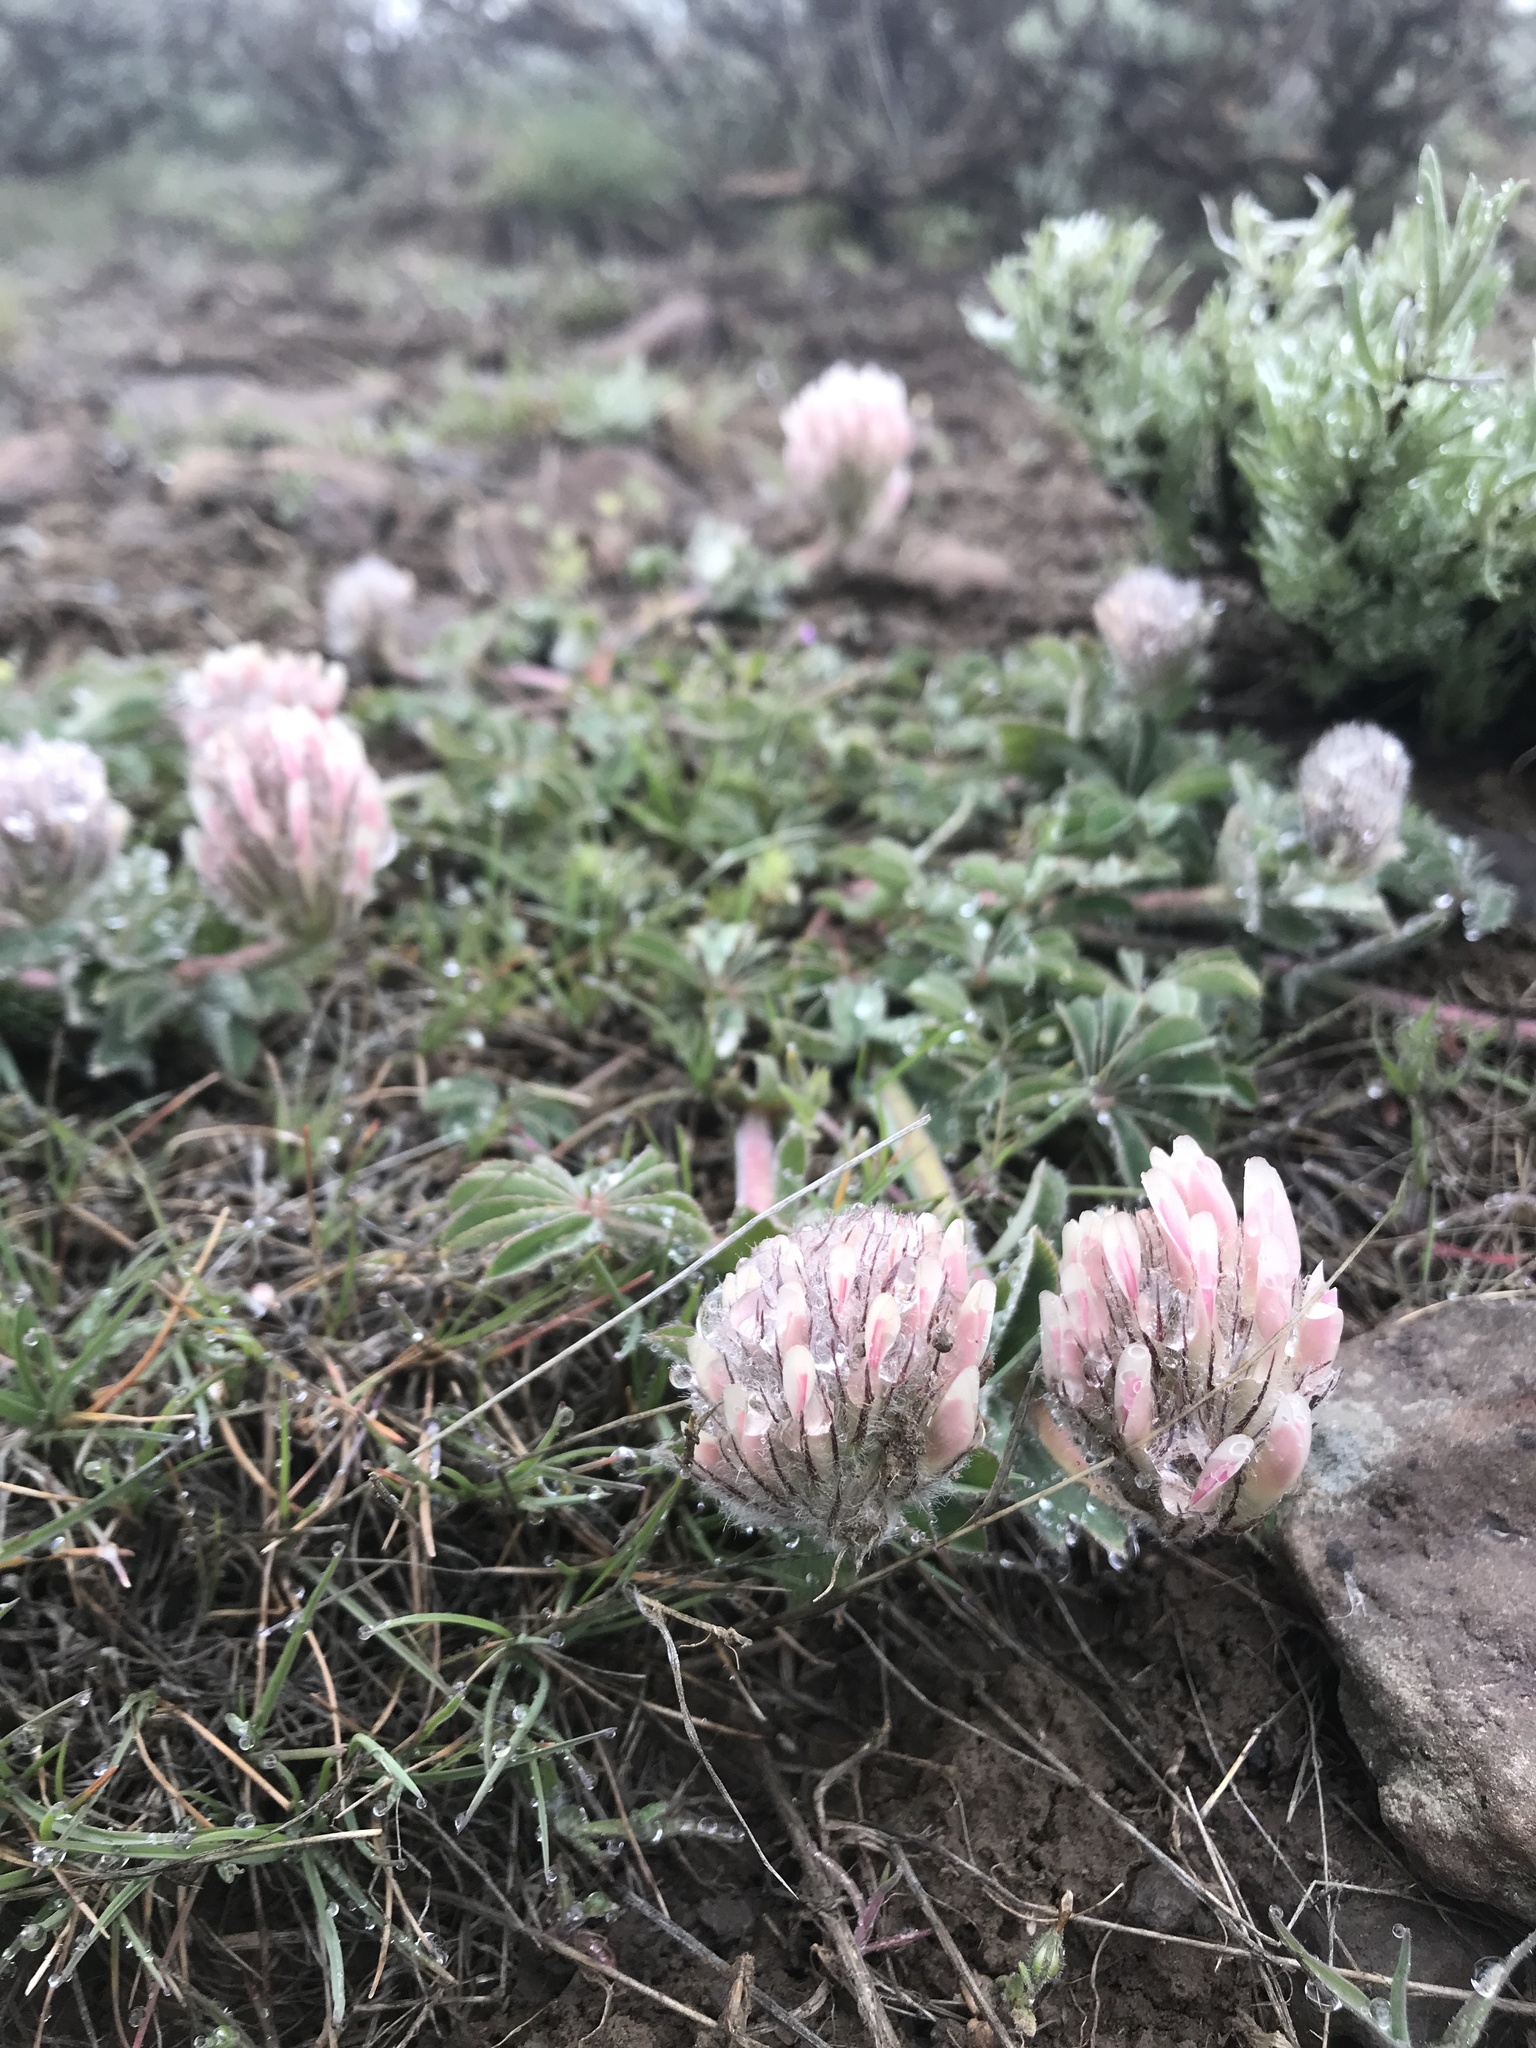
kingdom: Plantae
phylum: Tracheophyta
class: Magnoliopsida
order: Fabales
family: Fabaceae
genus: Trifolium
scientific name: Trifolium macrocephalum
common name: Large-head clover
